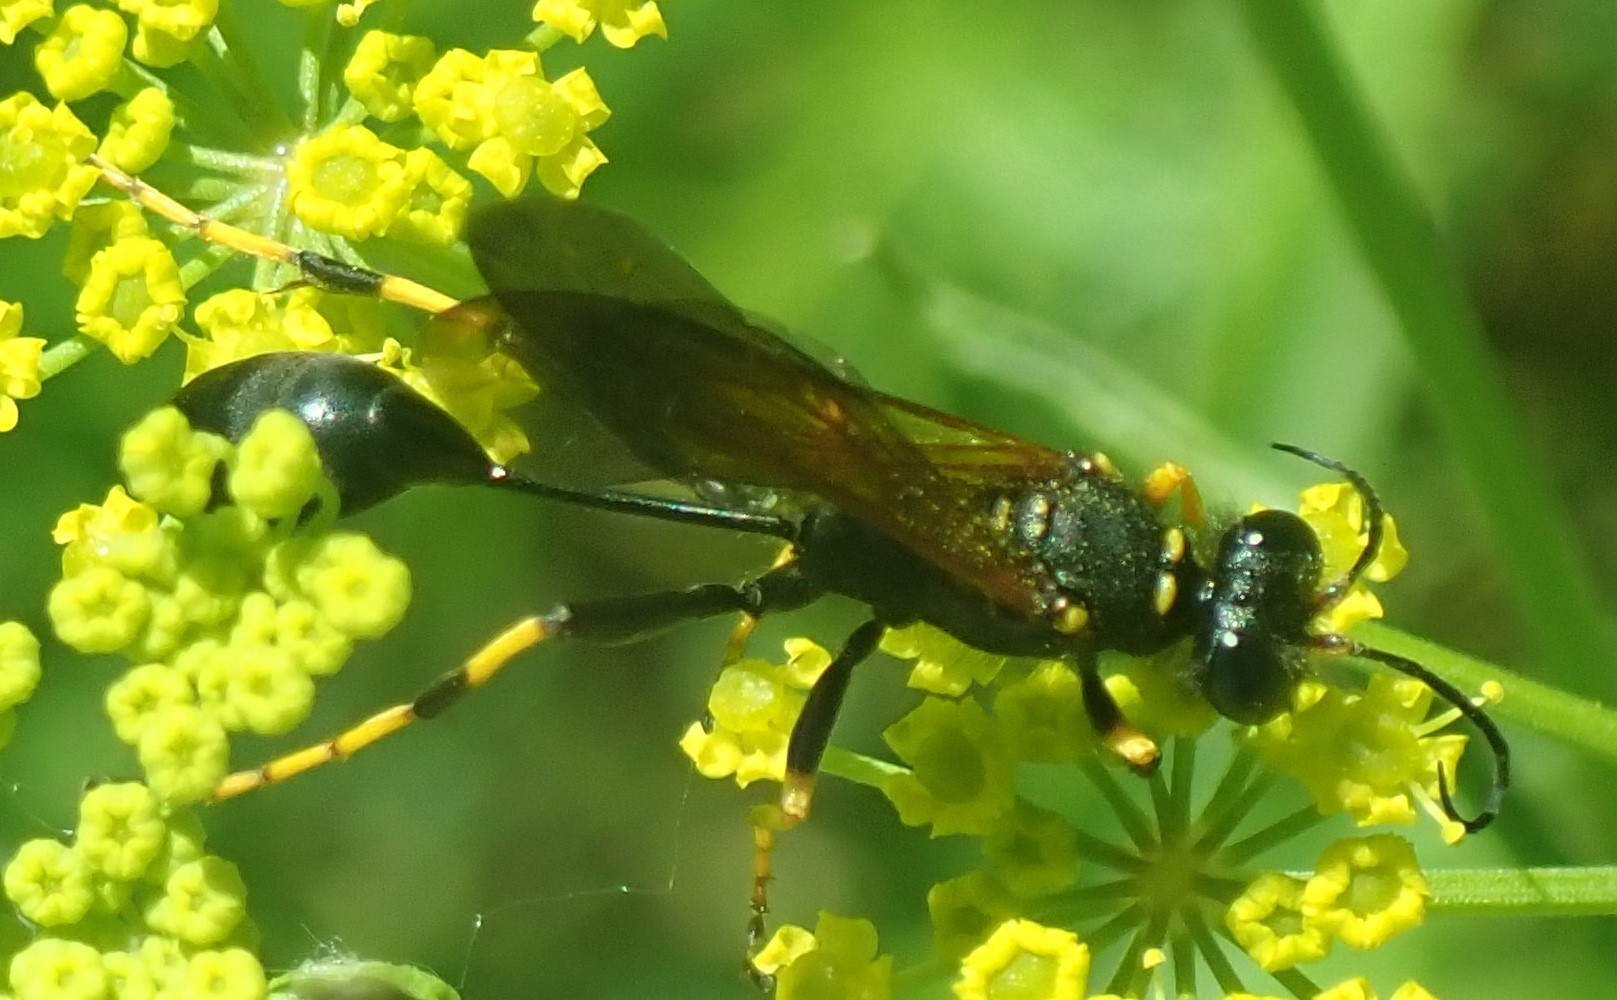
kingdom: Animalia
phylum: Arthropoda
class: Insecta
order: Hymenoptera
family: Sphecidae
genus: Sceliphron
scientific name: Sceliphron caementarium
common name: Mud dauber
